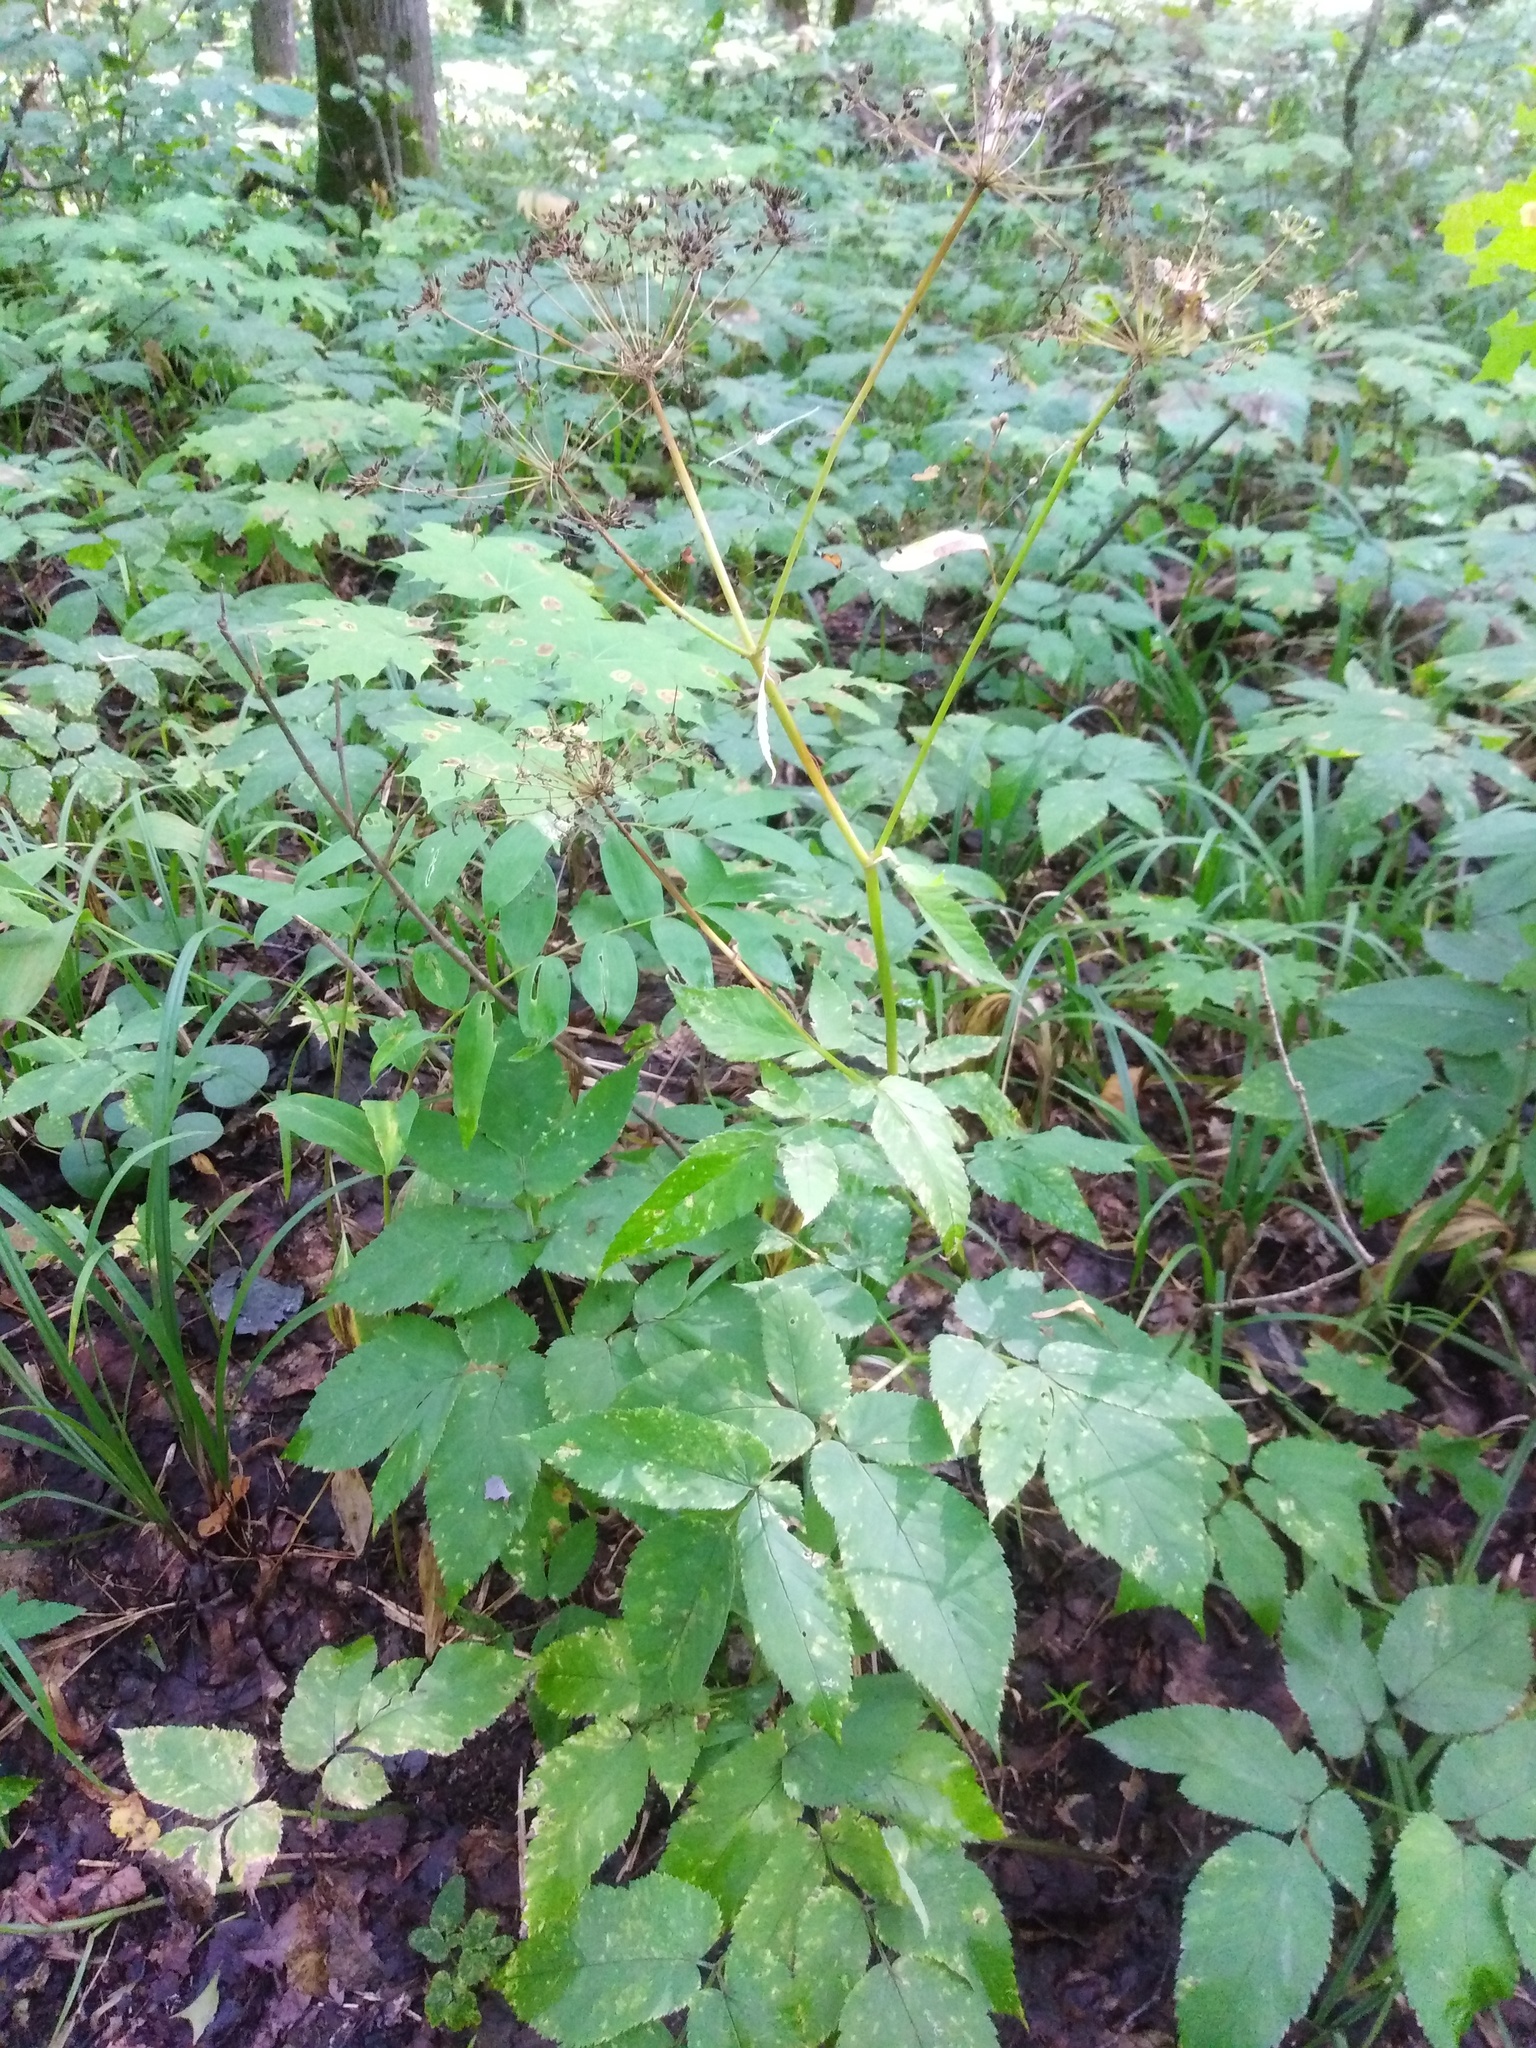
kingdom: Plantae
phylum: Tracheophyta
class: Magnoliopsida
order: Apiales
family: Apiaceae
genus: Aegopodium
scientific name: Aegopodium podagraria
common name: Ground-elder
